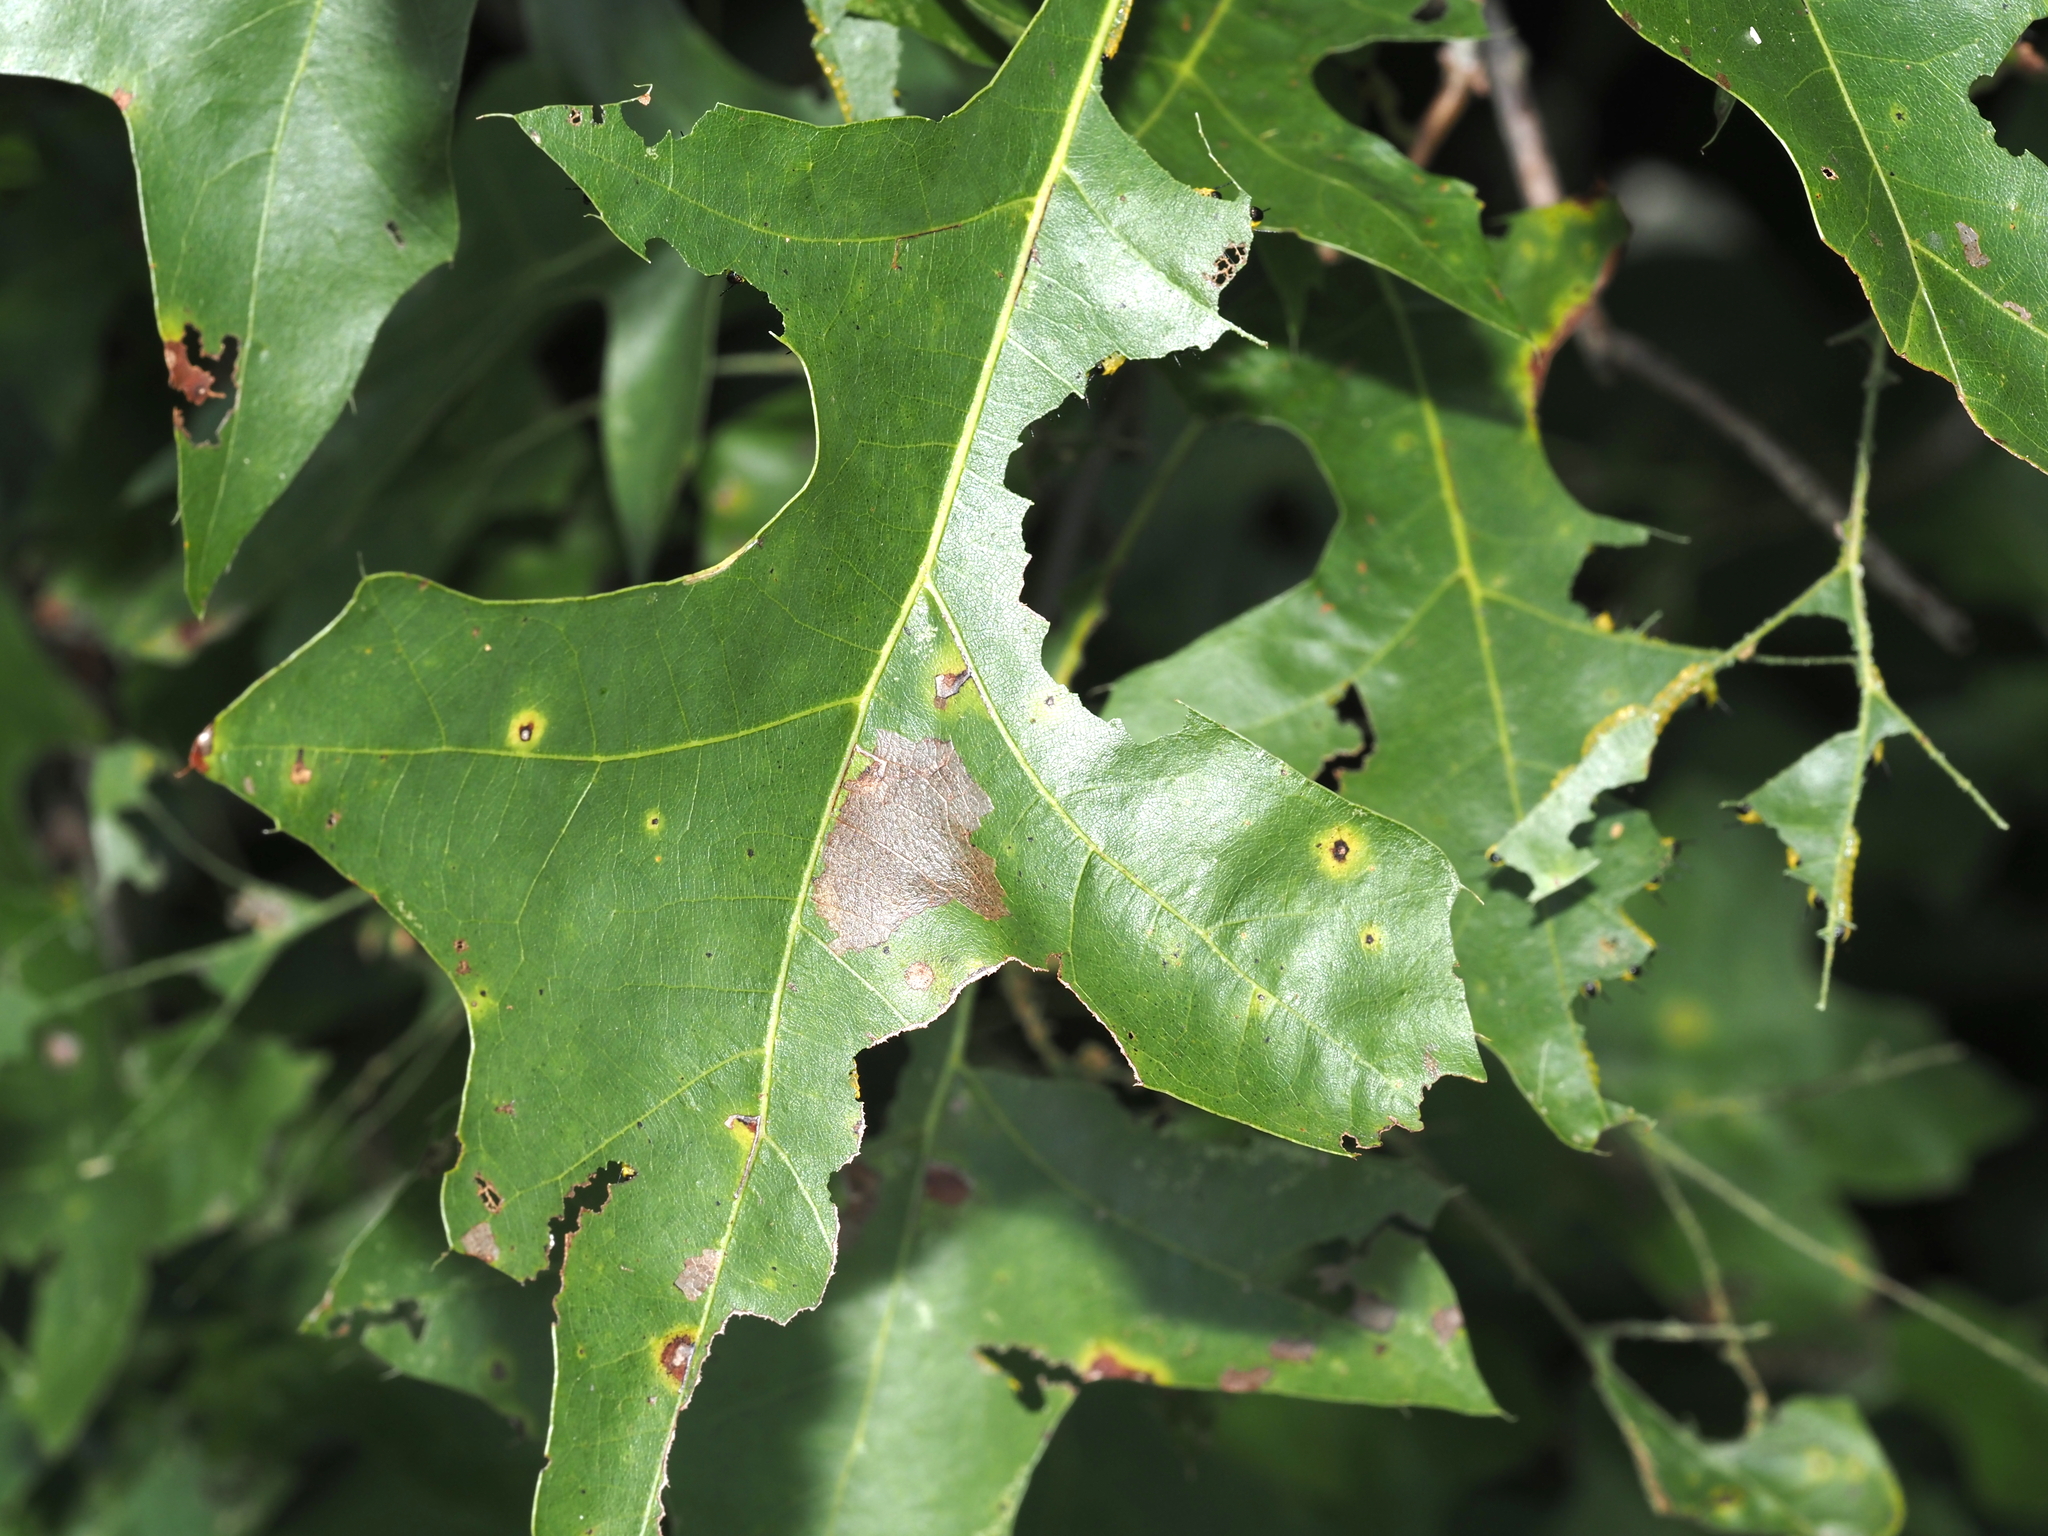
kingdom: Animalia
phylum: Arthropoda
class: Insecta
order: Lepidoptera
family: Saturniidae
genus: Dryocampa
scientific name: Dryocampa rubicunda
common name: Rosy maple moth
